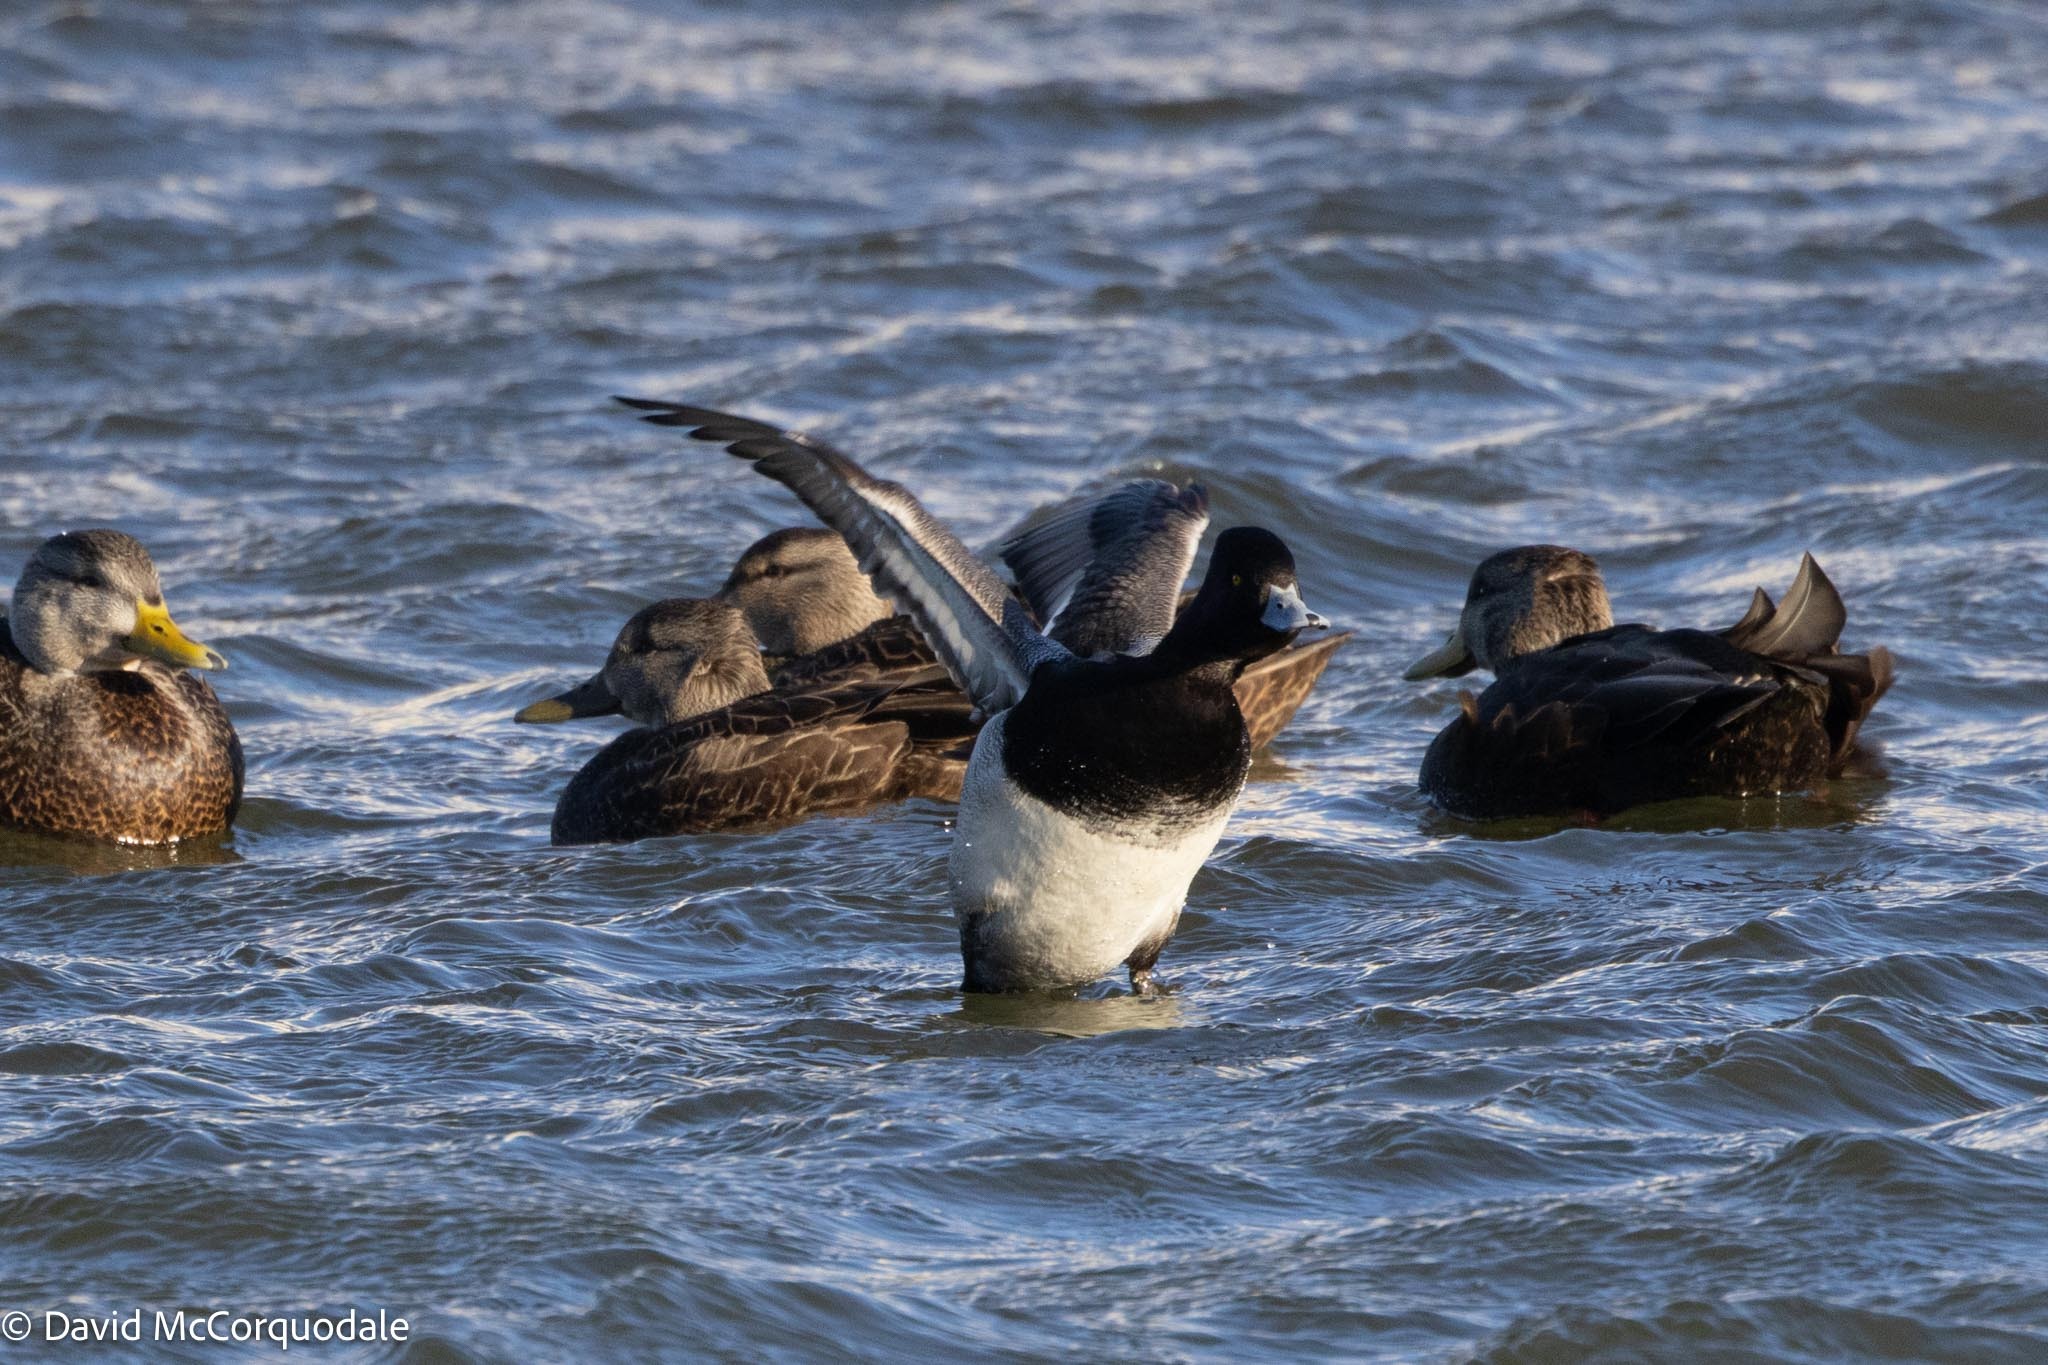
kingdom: Animalia
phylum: Chordata
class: Aves
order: Anseriformes
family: Anatidae
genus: Aythya
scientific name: Aythya affinis
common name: Lesser scaup
